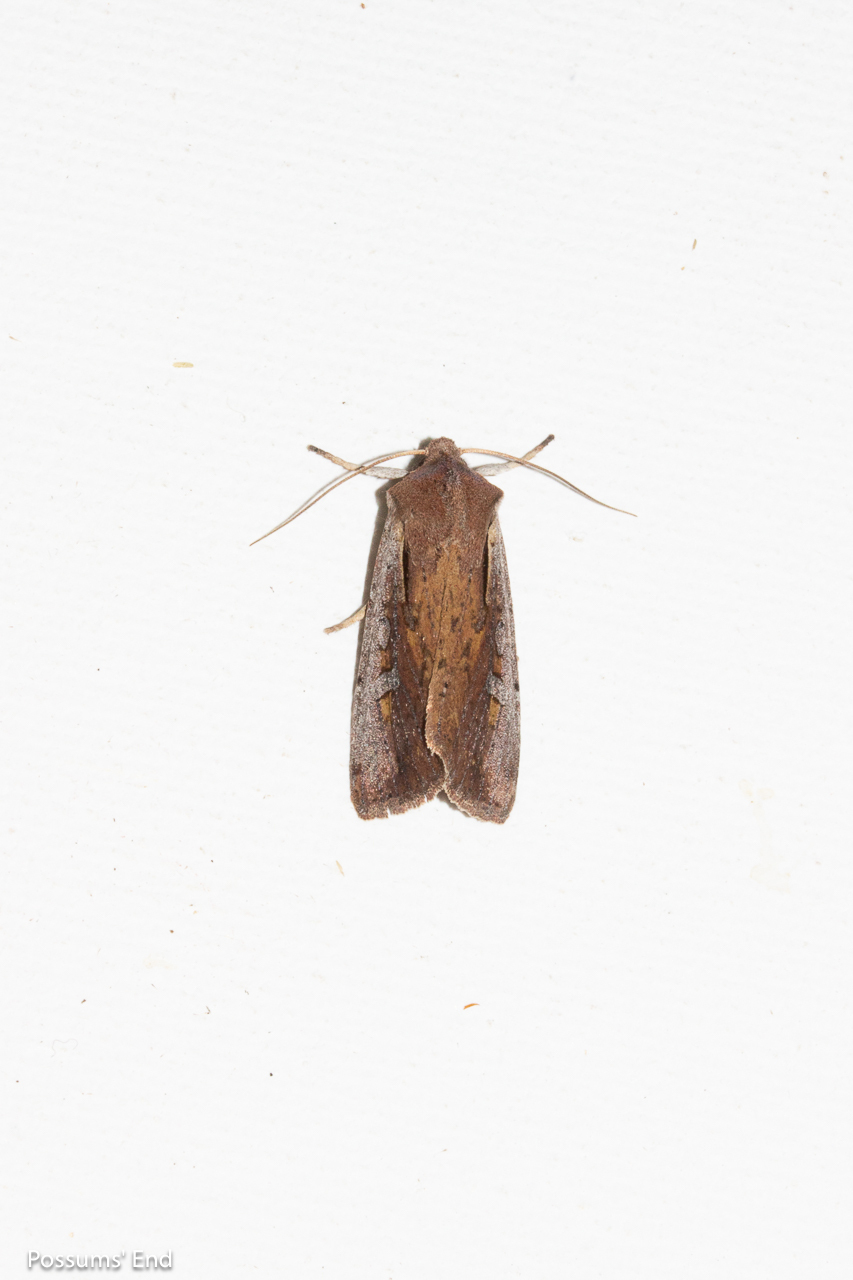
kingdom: Animalia
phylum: Arthropoda
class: Insecta
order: Lepidoptera
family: Noctuidae
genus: Ichneutica
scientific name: Ichneutica atristriga
